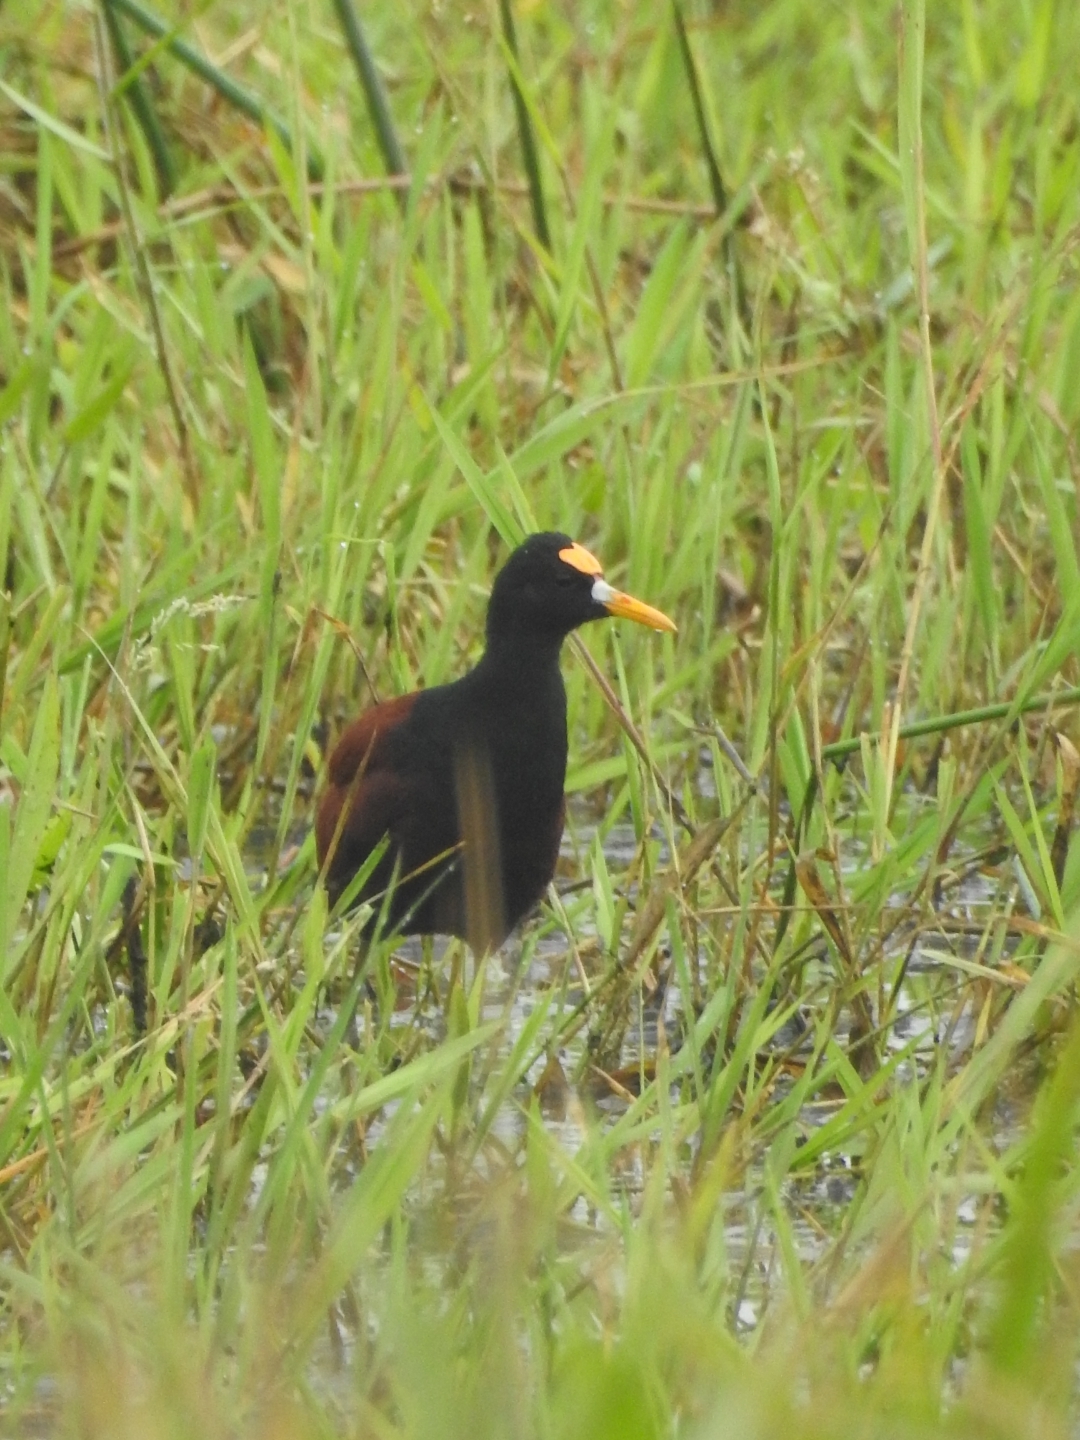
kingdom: Animalia
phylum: Chordata
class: Aves
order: Charadriiformes
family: Jacanidae
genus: Jacana
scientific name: Jacana spinosa
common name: Northern jacana
